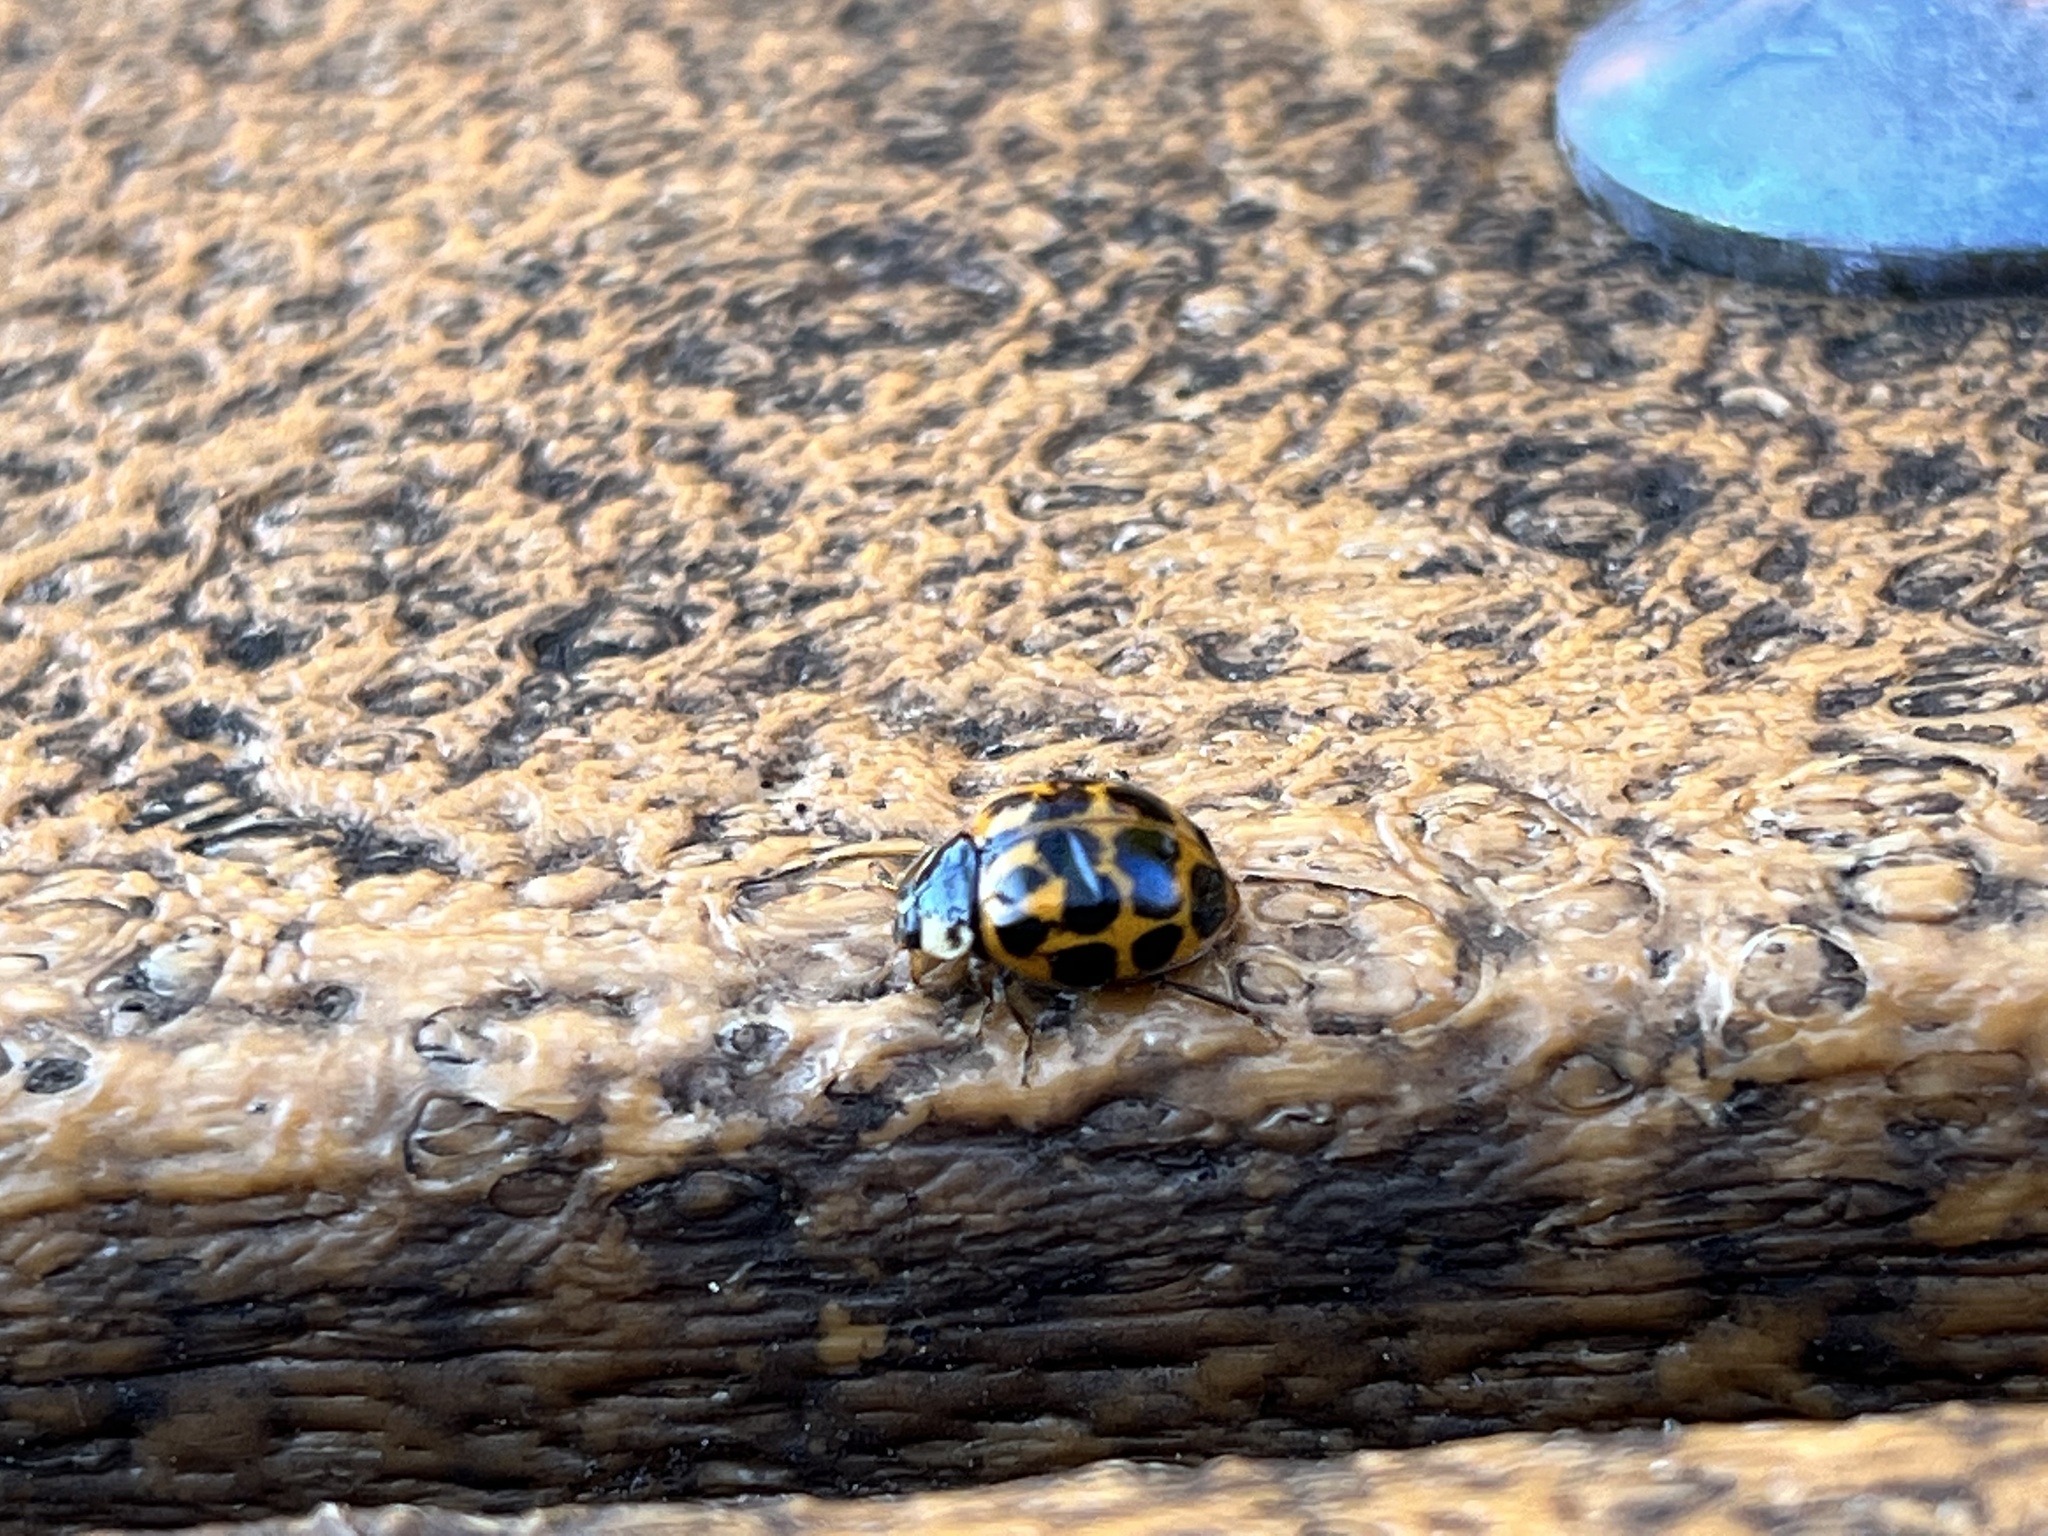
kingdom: Animalia
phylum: Arthropoda
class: Insecta
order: Coleoptera
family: Coccinellidae
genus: Harmonia
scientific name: Harmonia axyridis
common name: Harlequin ladybird
